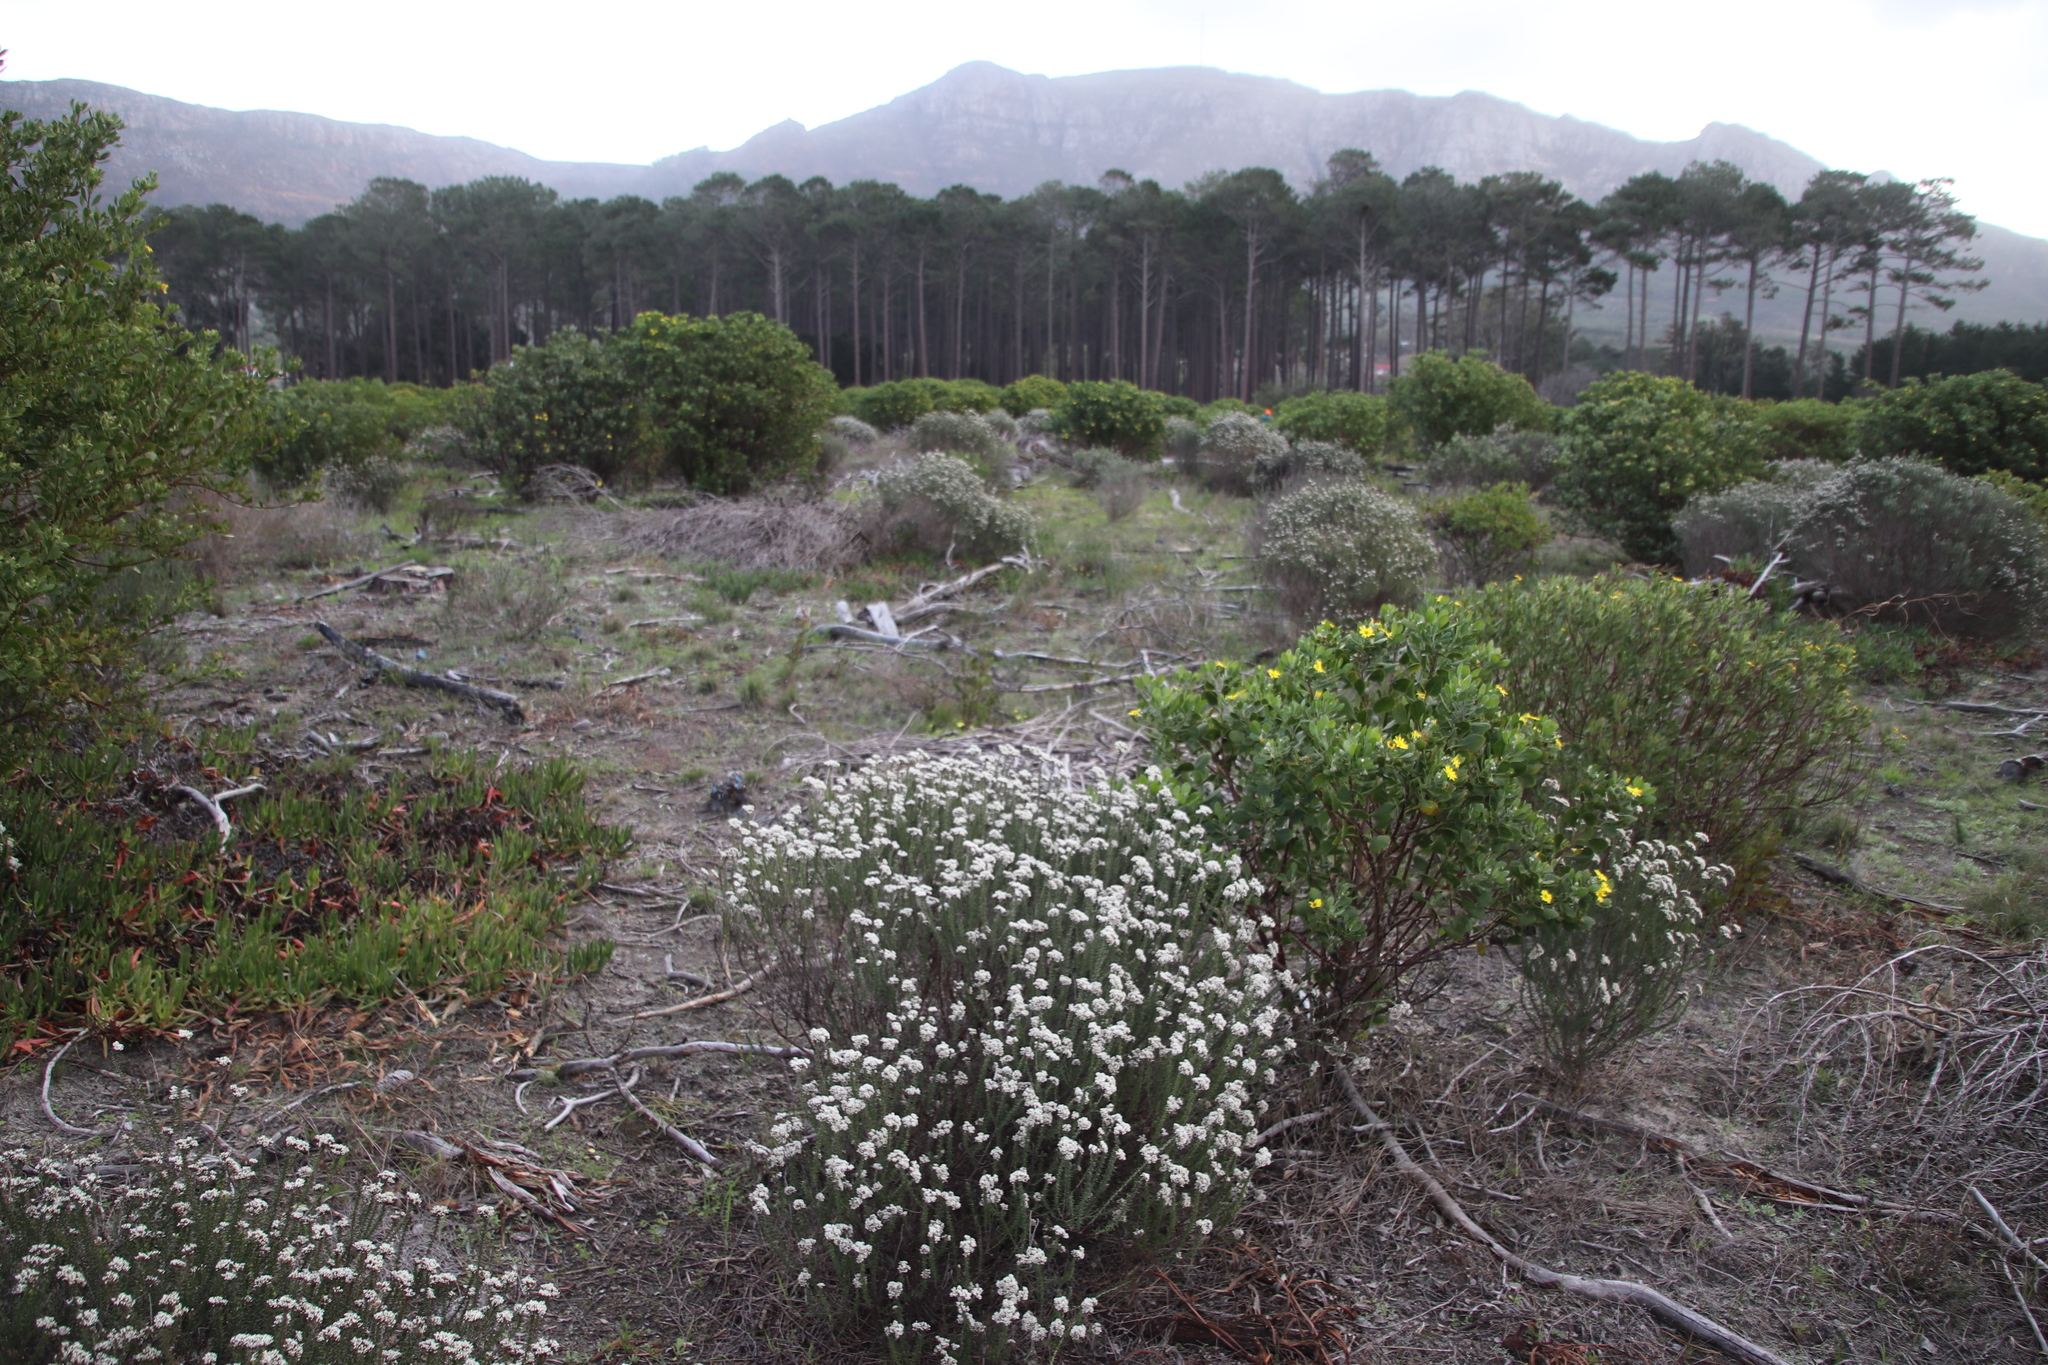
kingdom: Plantae
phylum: Tracheophyta
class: Magnoliopsida
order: Asterales
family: Asteraceae
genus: Metalasia
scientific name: Metalasia densa
